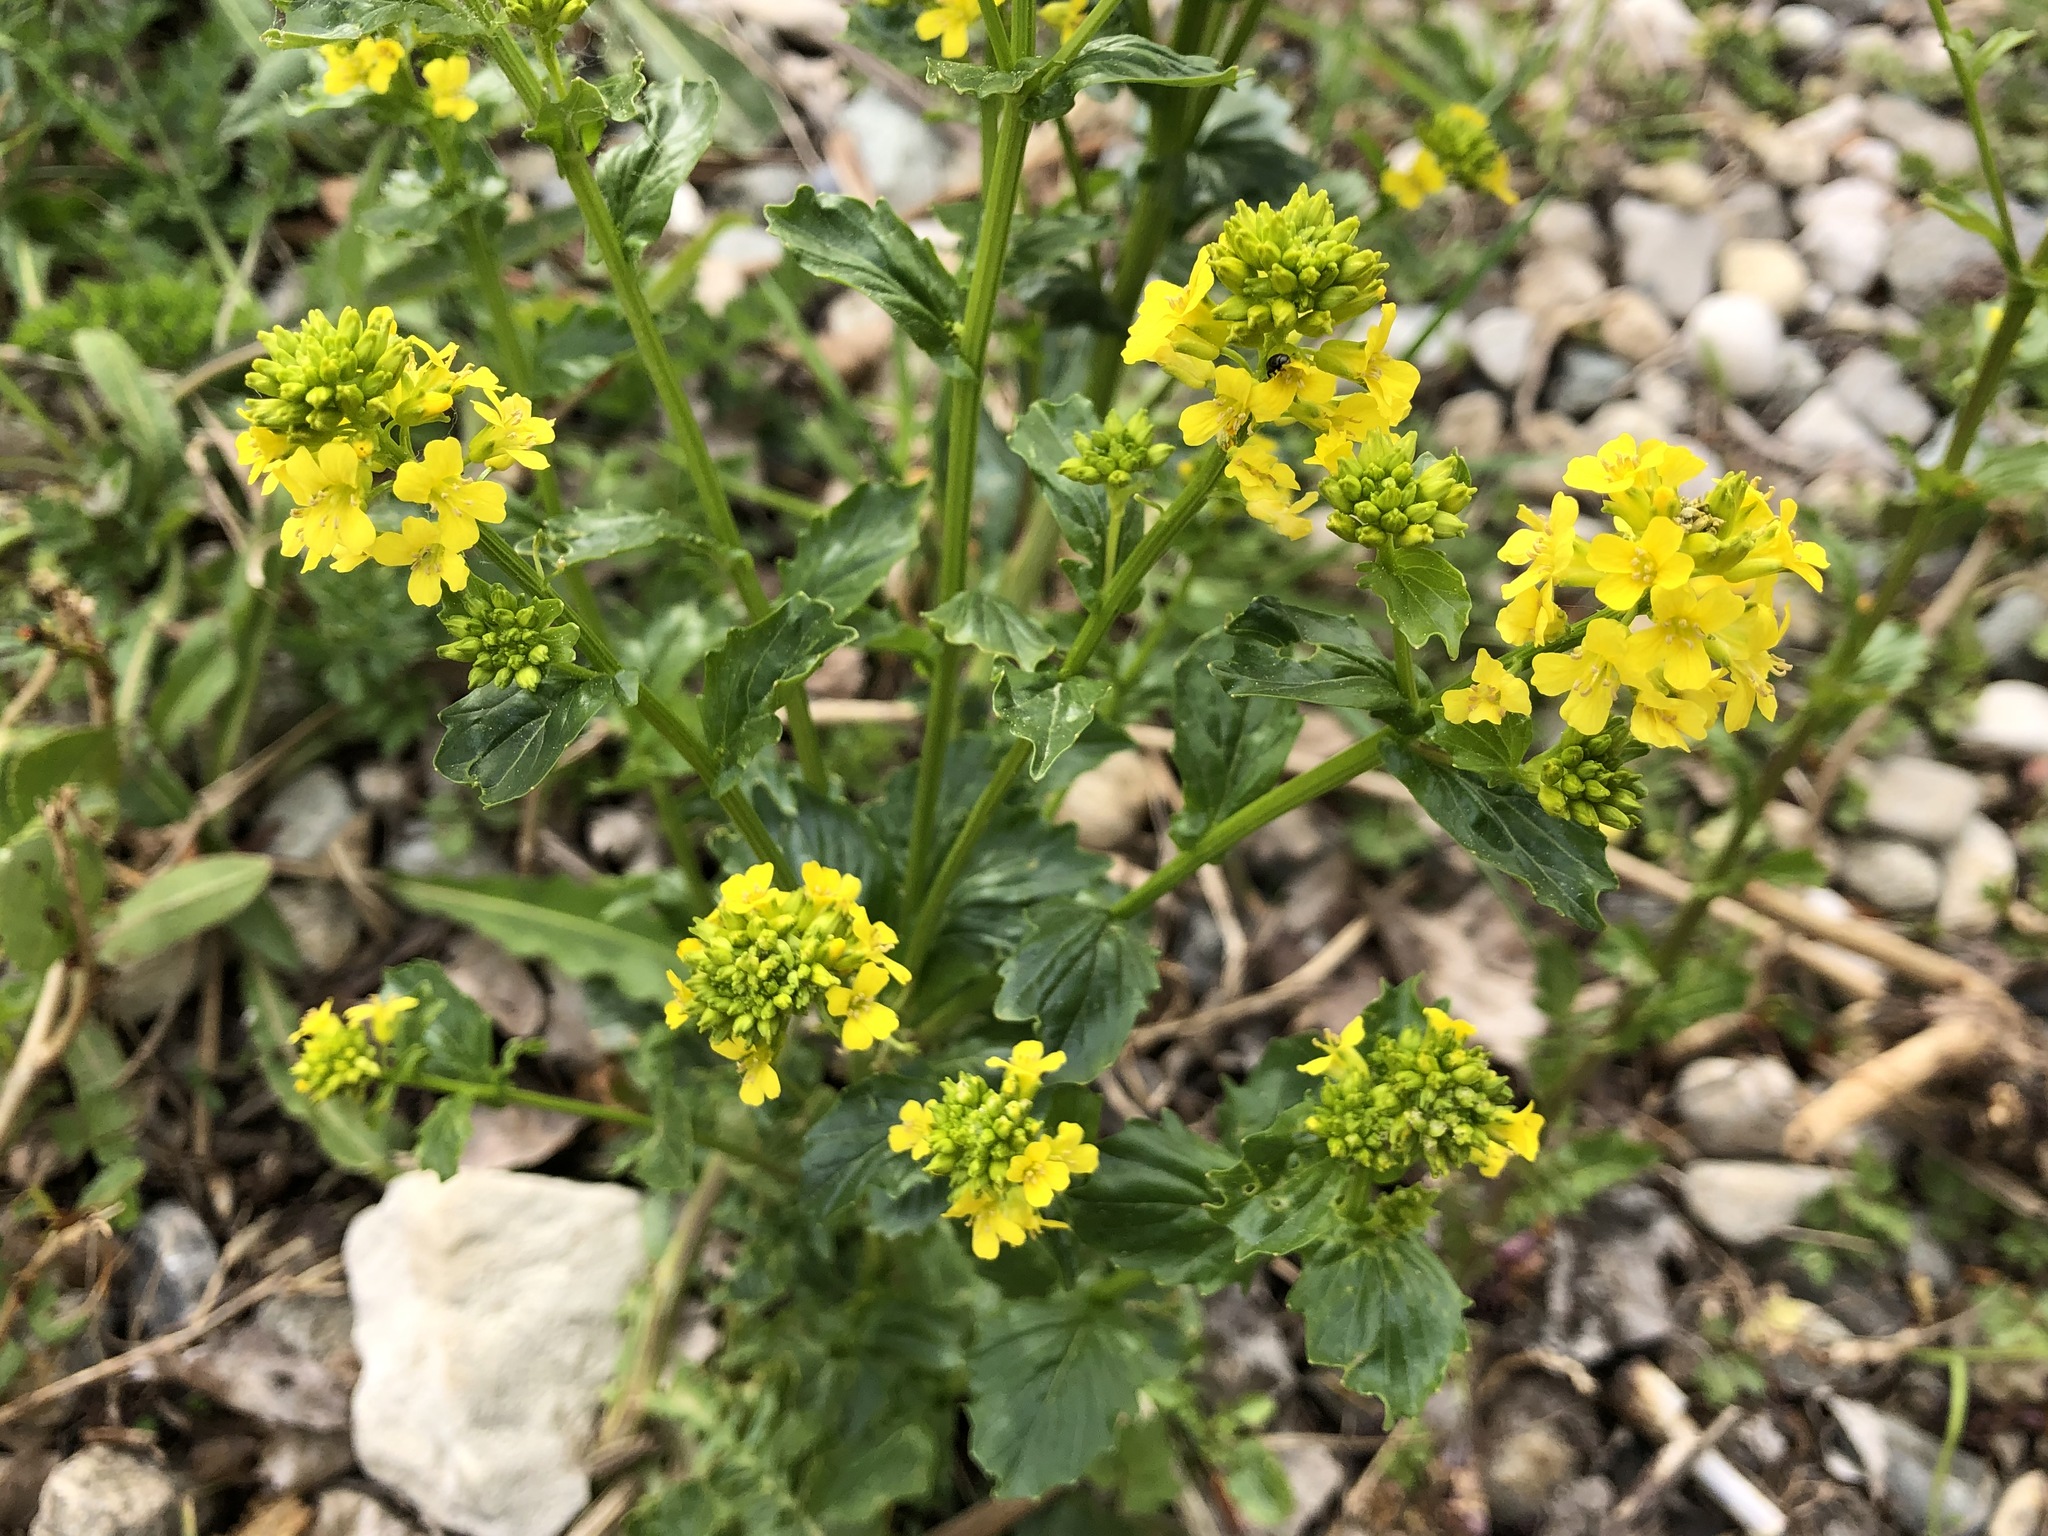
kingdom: Plantae
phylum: Tracheophyta
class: Magnoliopsida
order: Brassicales
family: Brassicaceae
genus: Barbarea
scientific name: Barbarea vulgaris
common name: Cressy-greens
